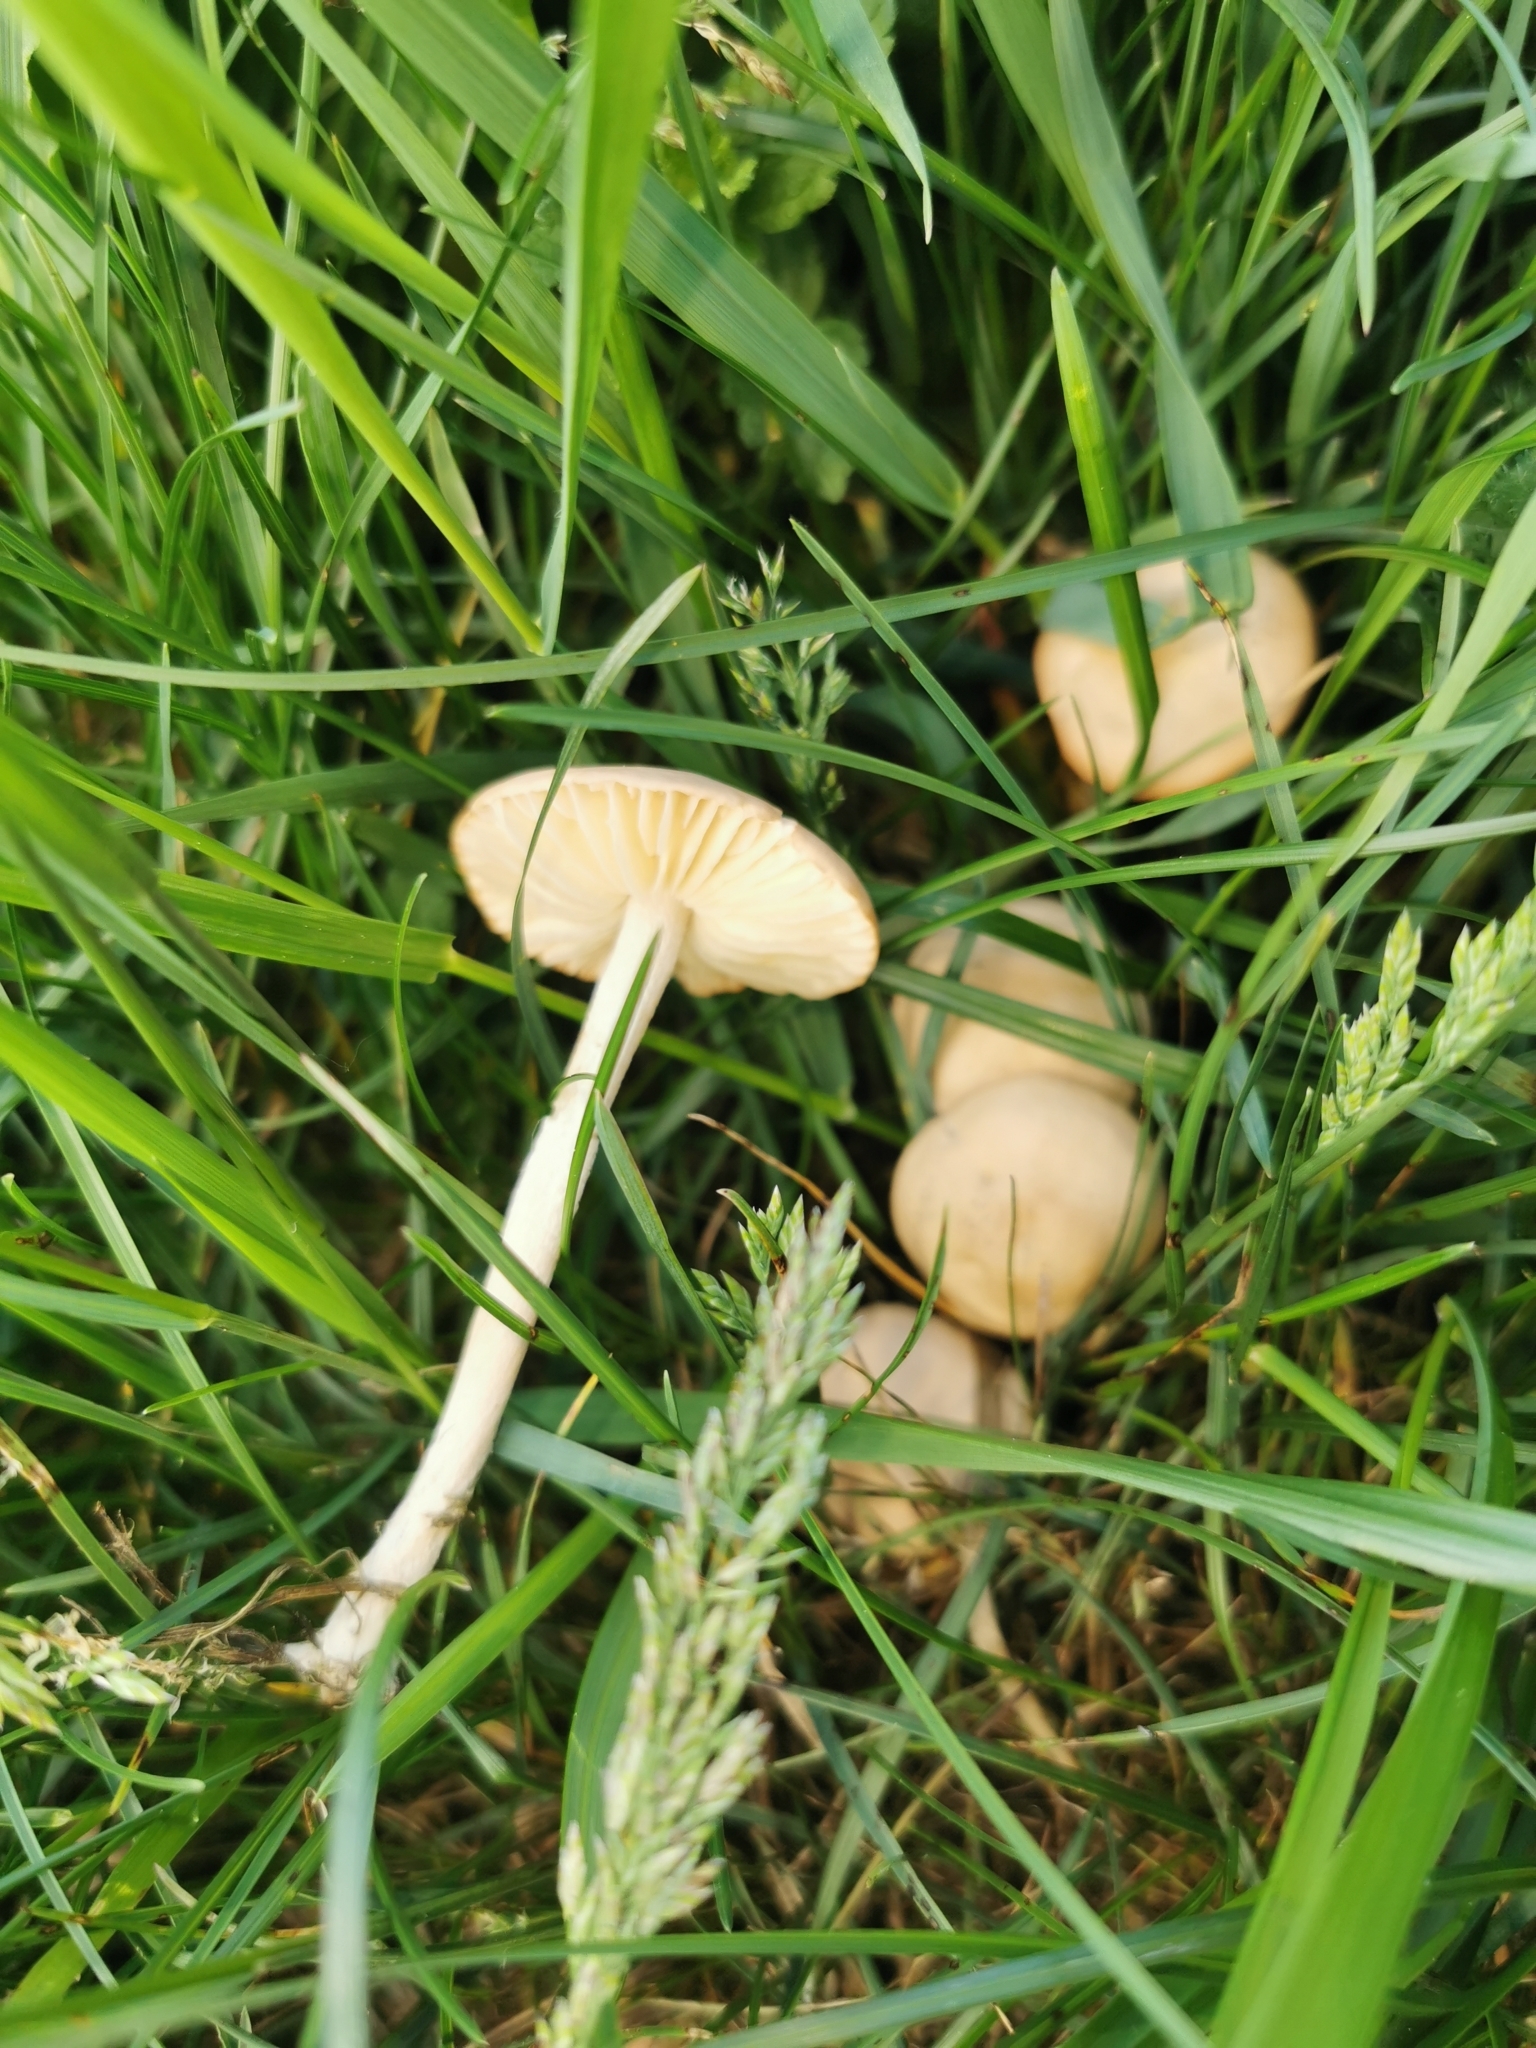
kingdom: Fungi
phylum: Basidiomycota
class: Agaricomycetes
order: Agaricales
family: Marasmiaceae
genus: Marasmius
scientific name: Marasmius oreades
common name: Fairy ring champignon
